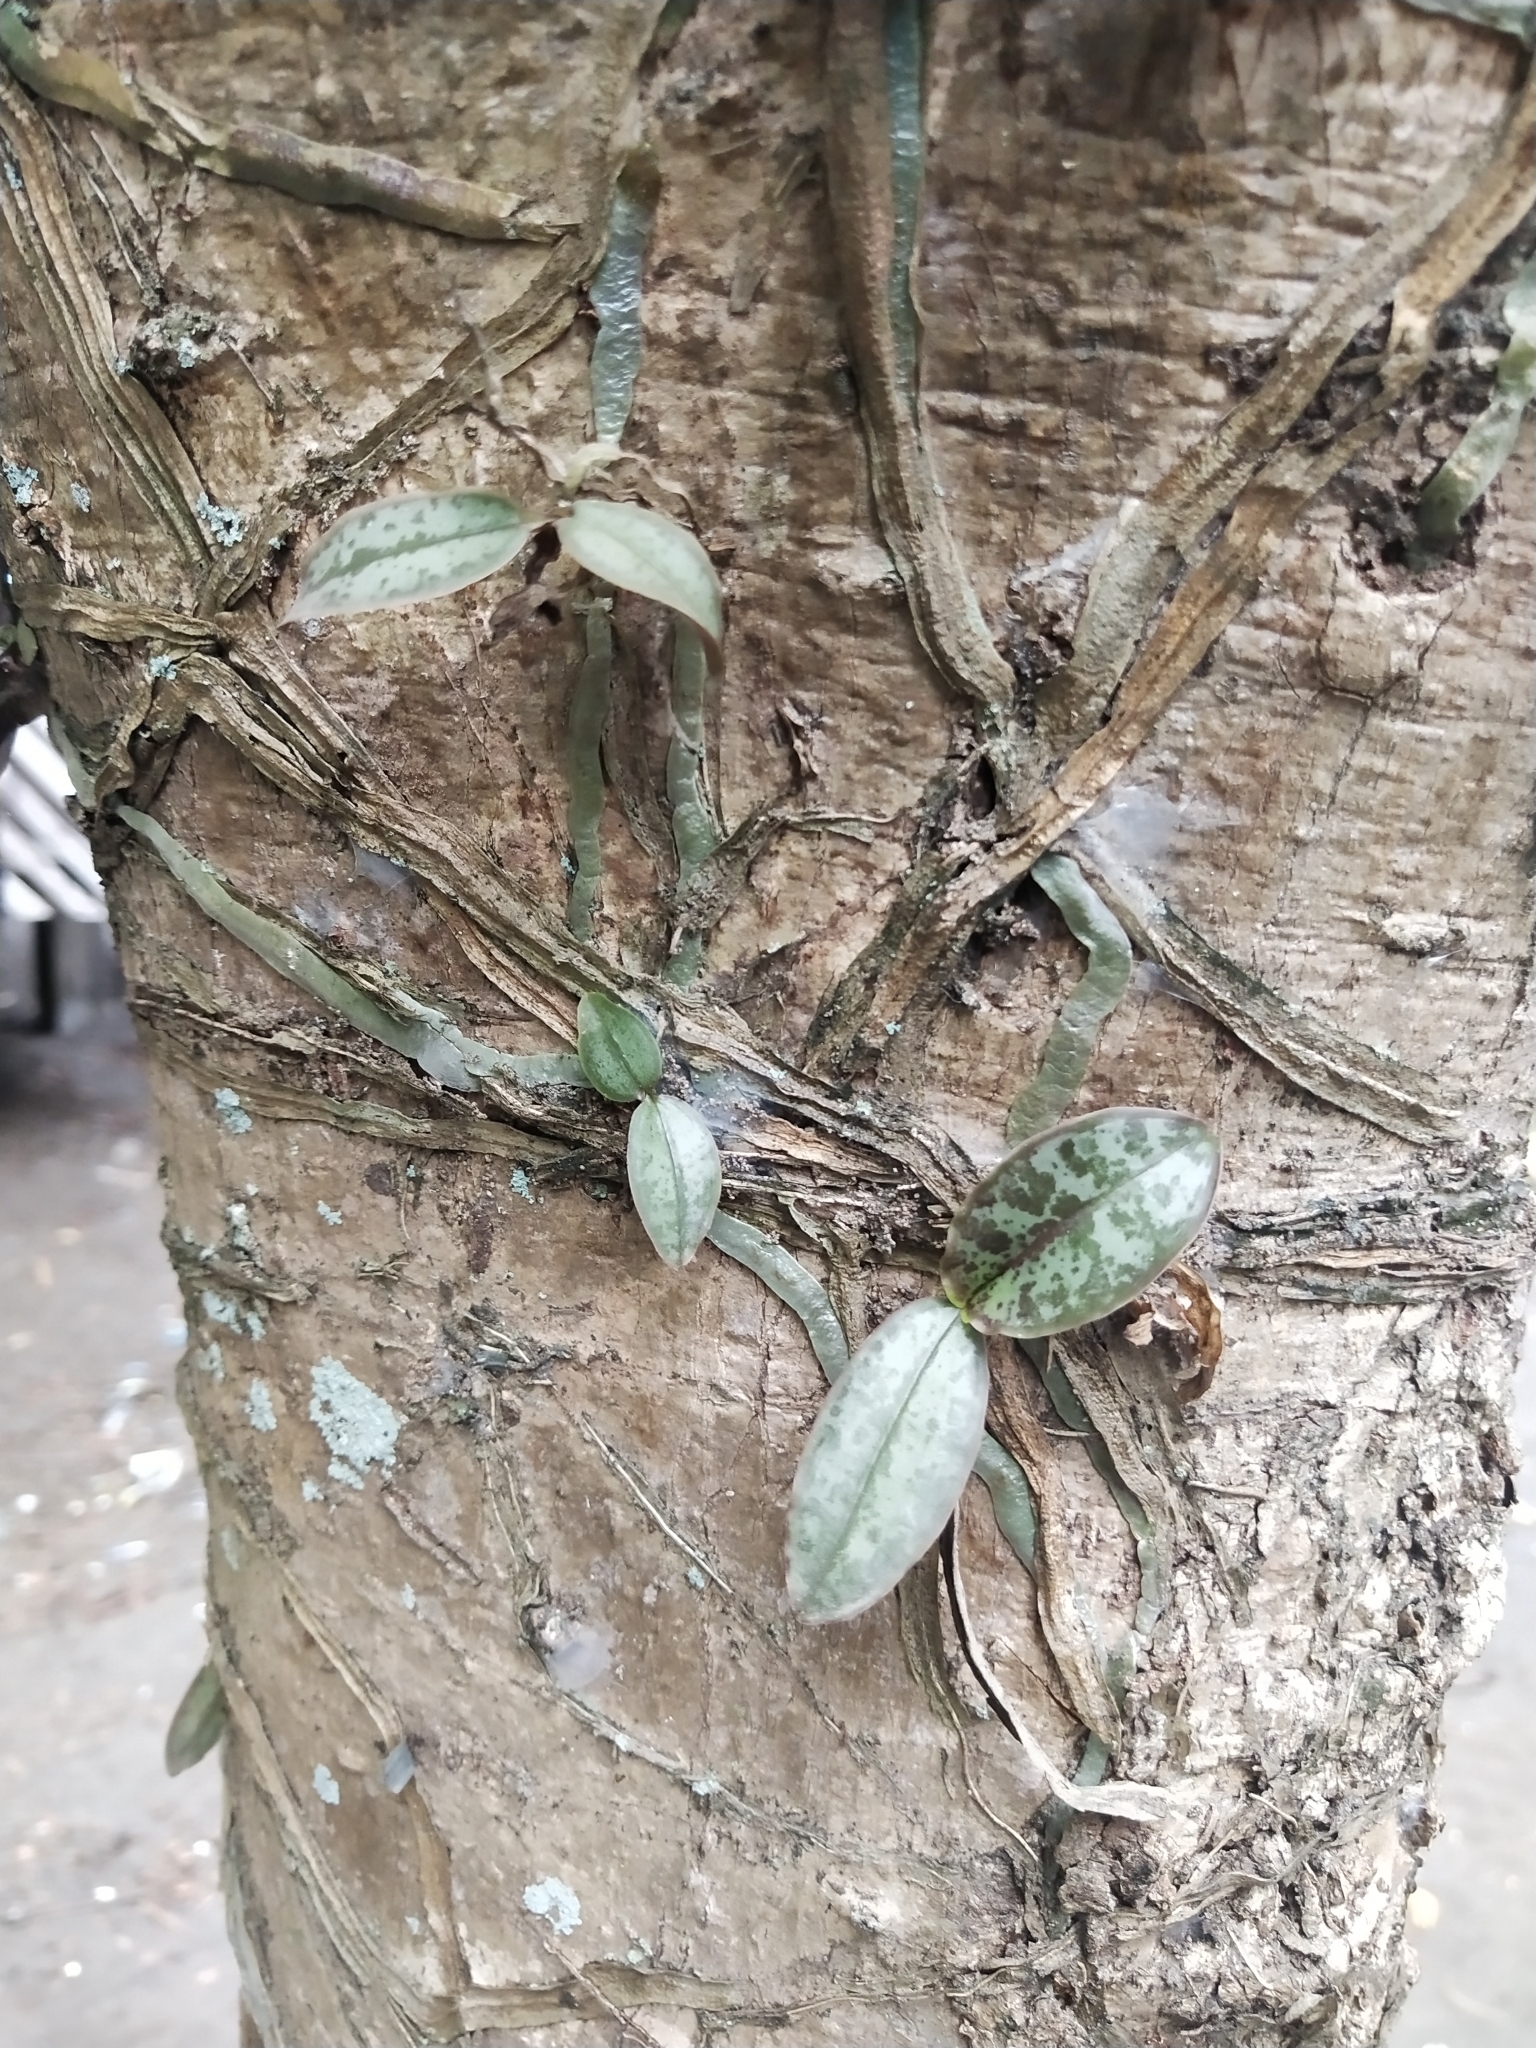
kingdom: Plantae
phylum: Tracheophyta
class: Liliopsida
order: Asparagales
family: Orchidaceae
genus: Phalaenopsis
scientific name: Phalaenopsis stuartiana
